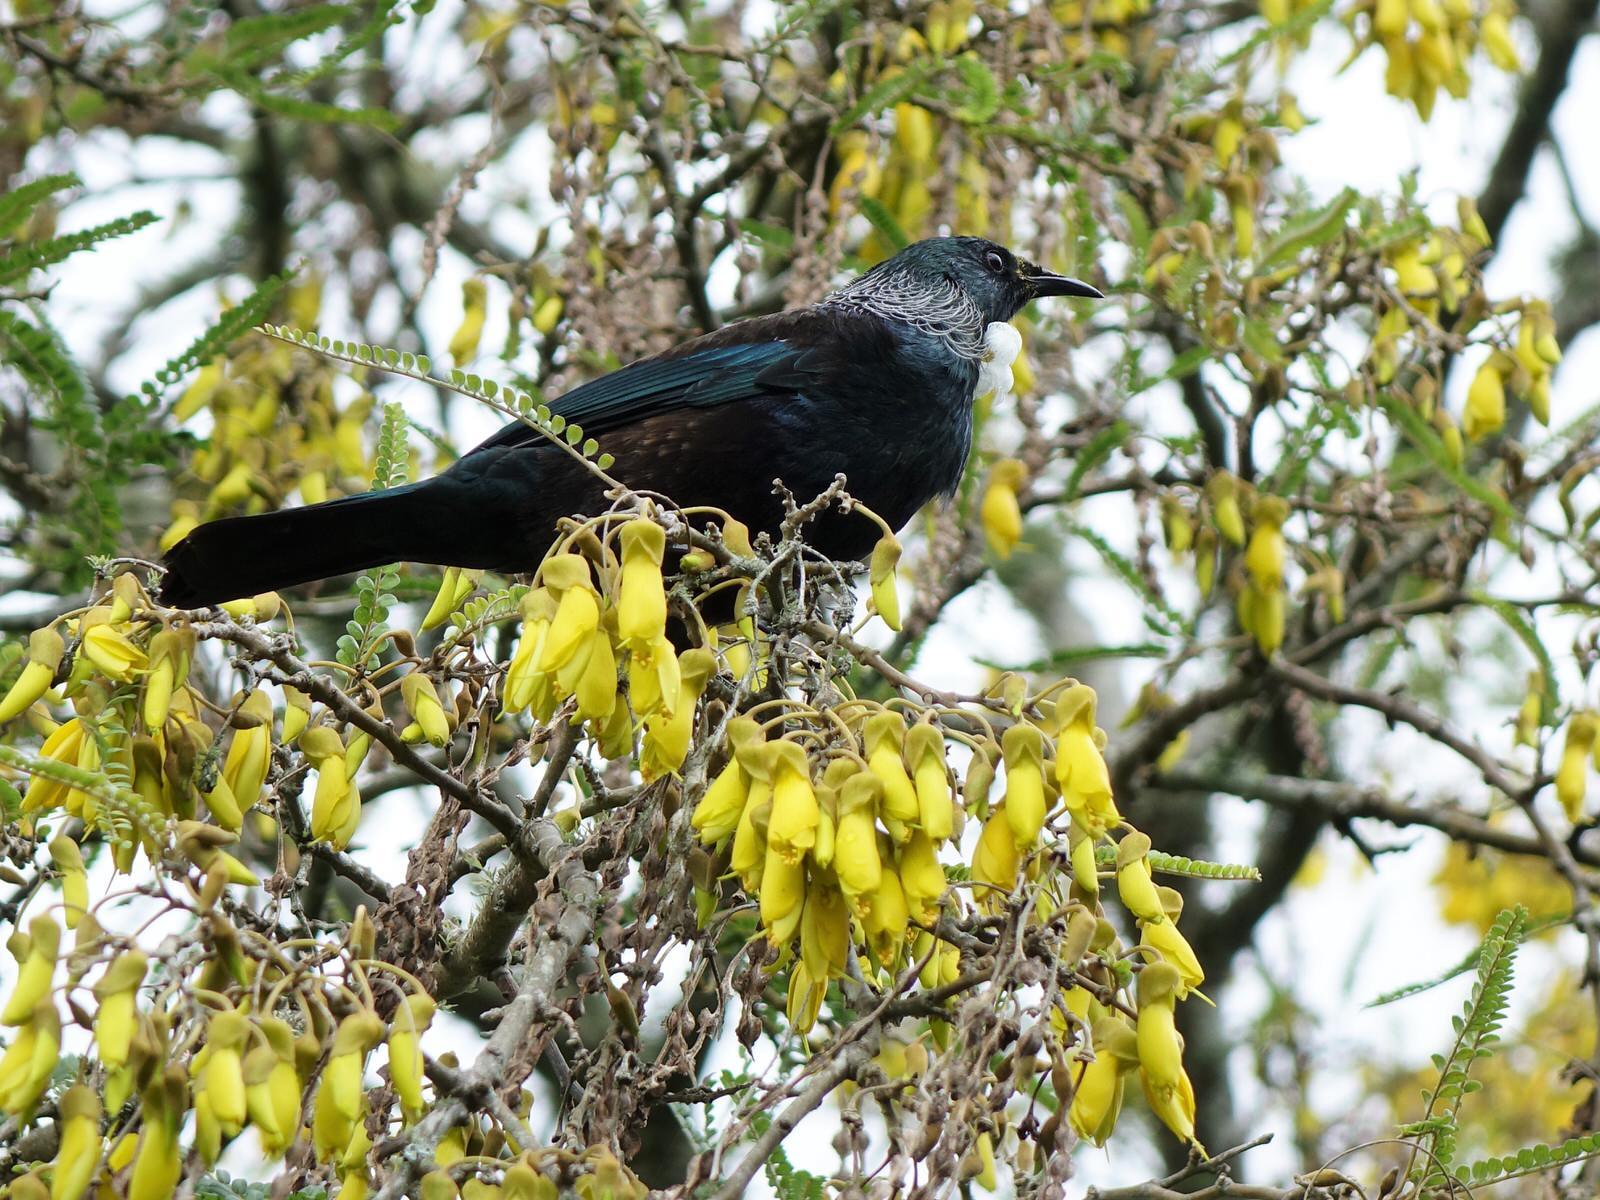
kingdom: Animalia
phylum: Chordata
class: Aves
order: Passeriformes
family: Meliphagidae
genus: Prosthemadera
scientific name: Prosthemadera novaeseelandiae
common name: Tui
